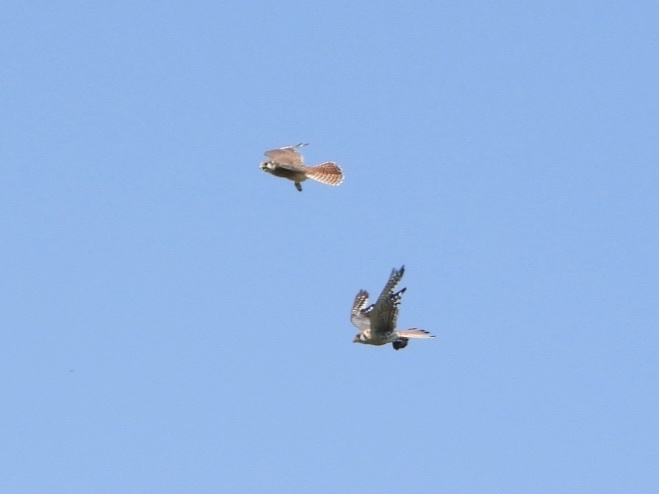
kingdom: Animalia
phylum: Chordata
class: Aves
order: Falconiformes
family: Falconidae
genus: Falco
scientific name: Falco sparverius
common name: American kestrel
